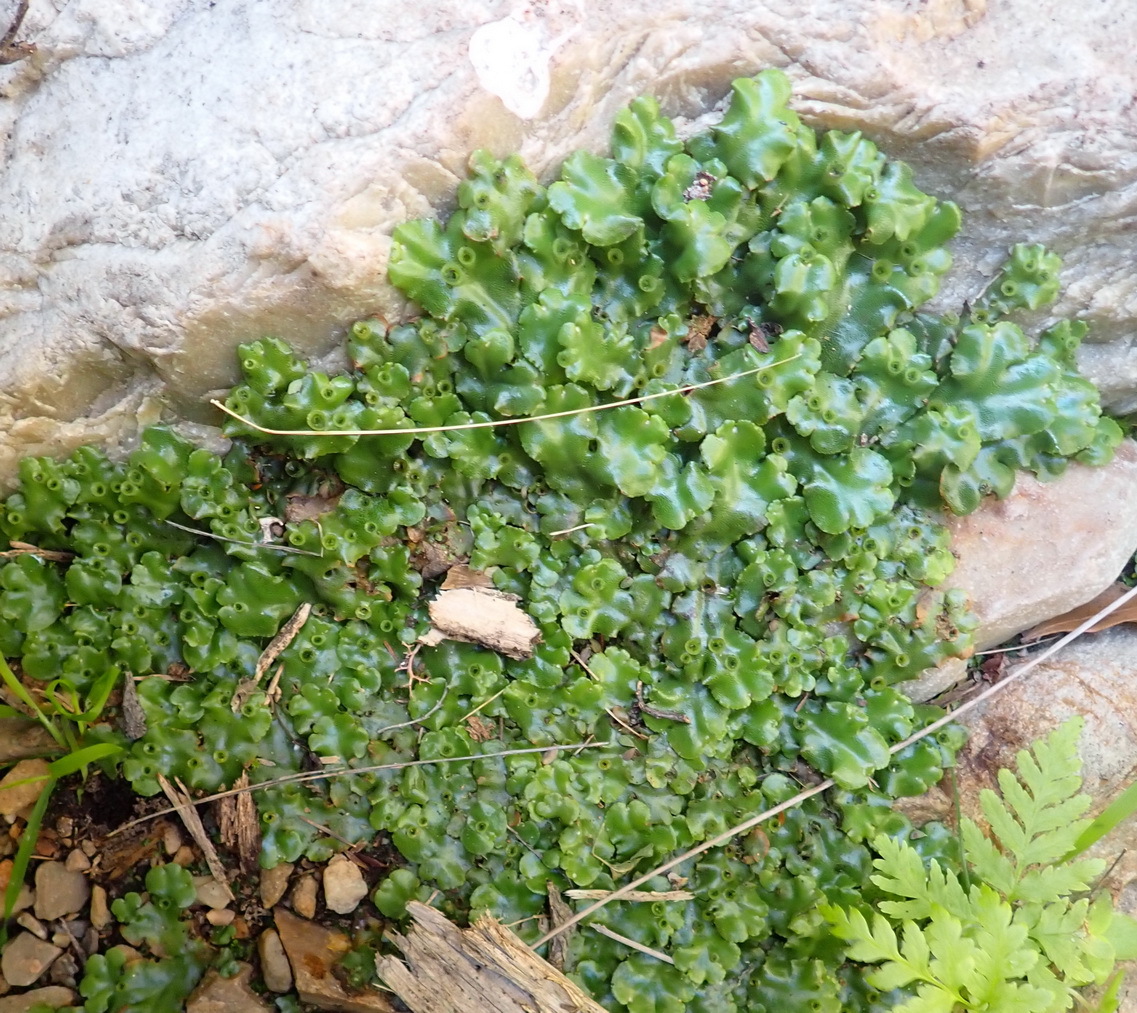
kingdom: Plantae
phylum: Marchantiophyta
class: Marchantiopsida
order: Marchantiales
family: Marchantiaceae
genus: Marchantia
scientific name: Marchantia berteroana
